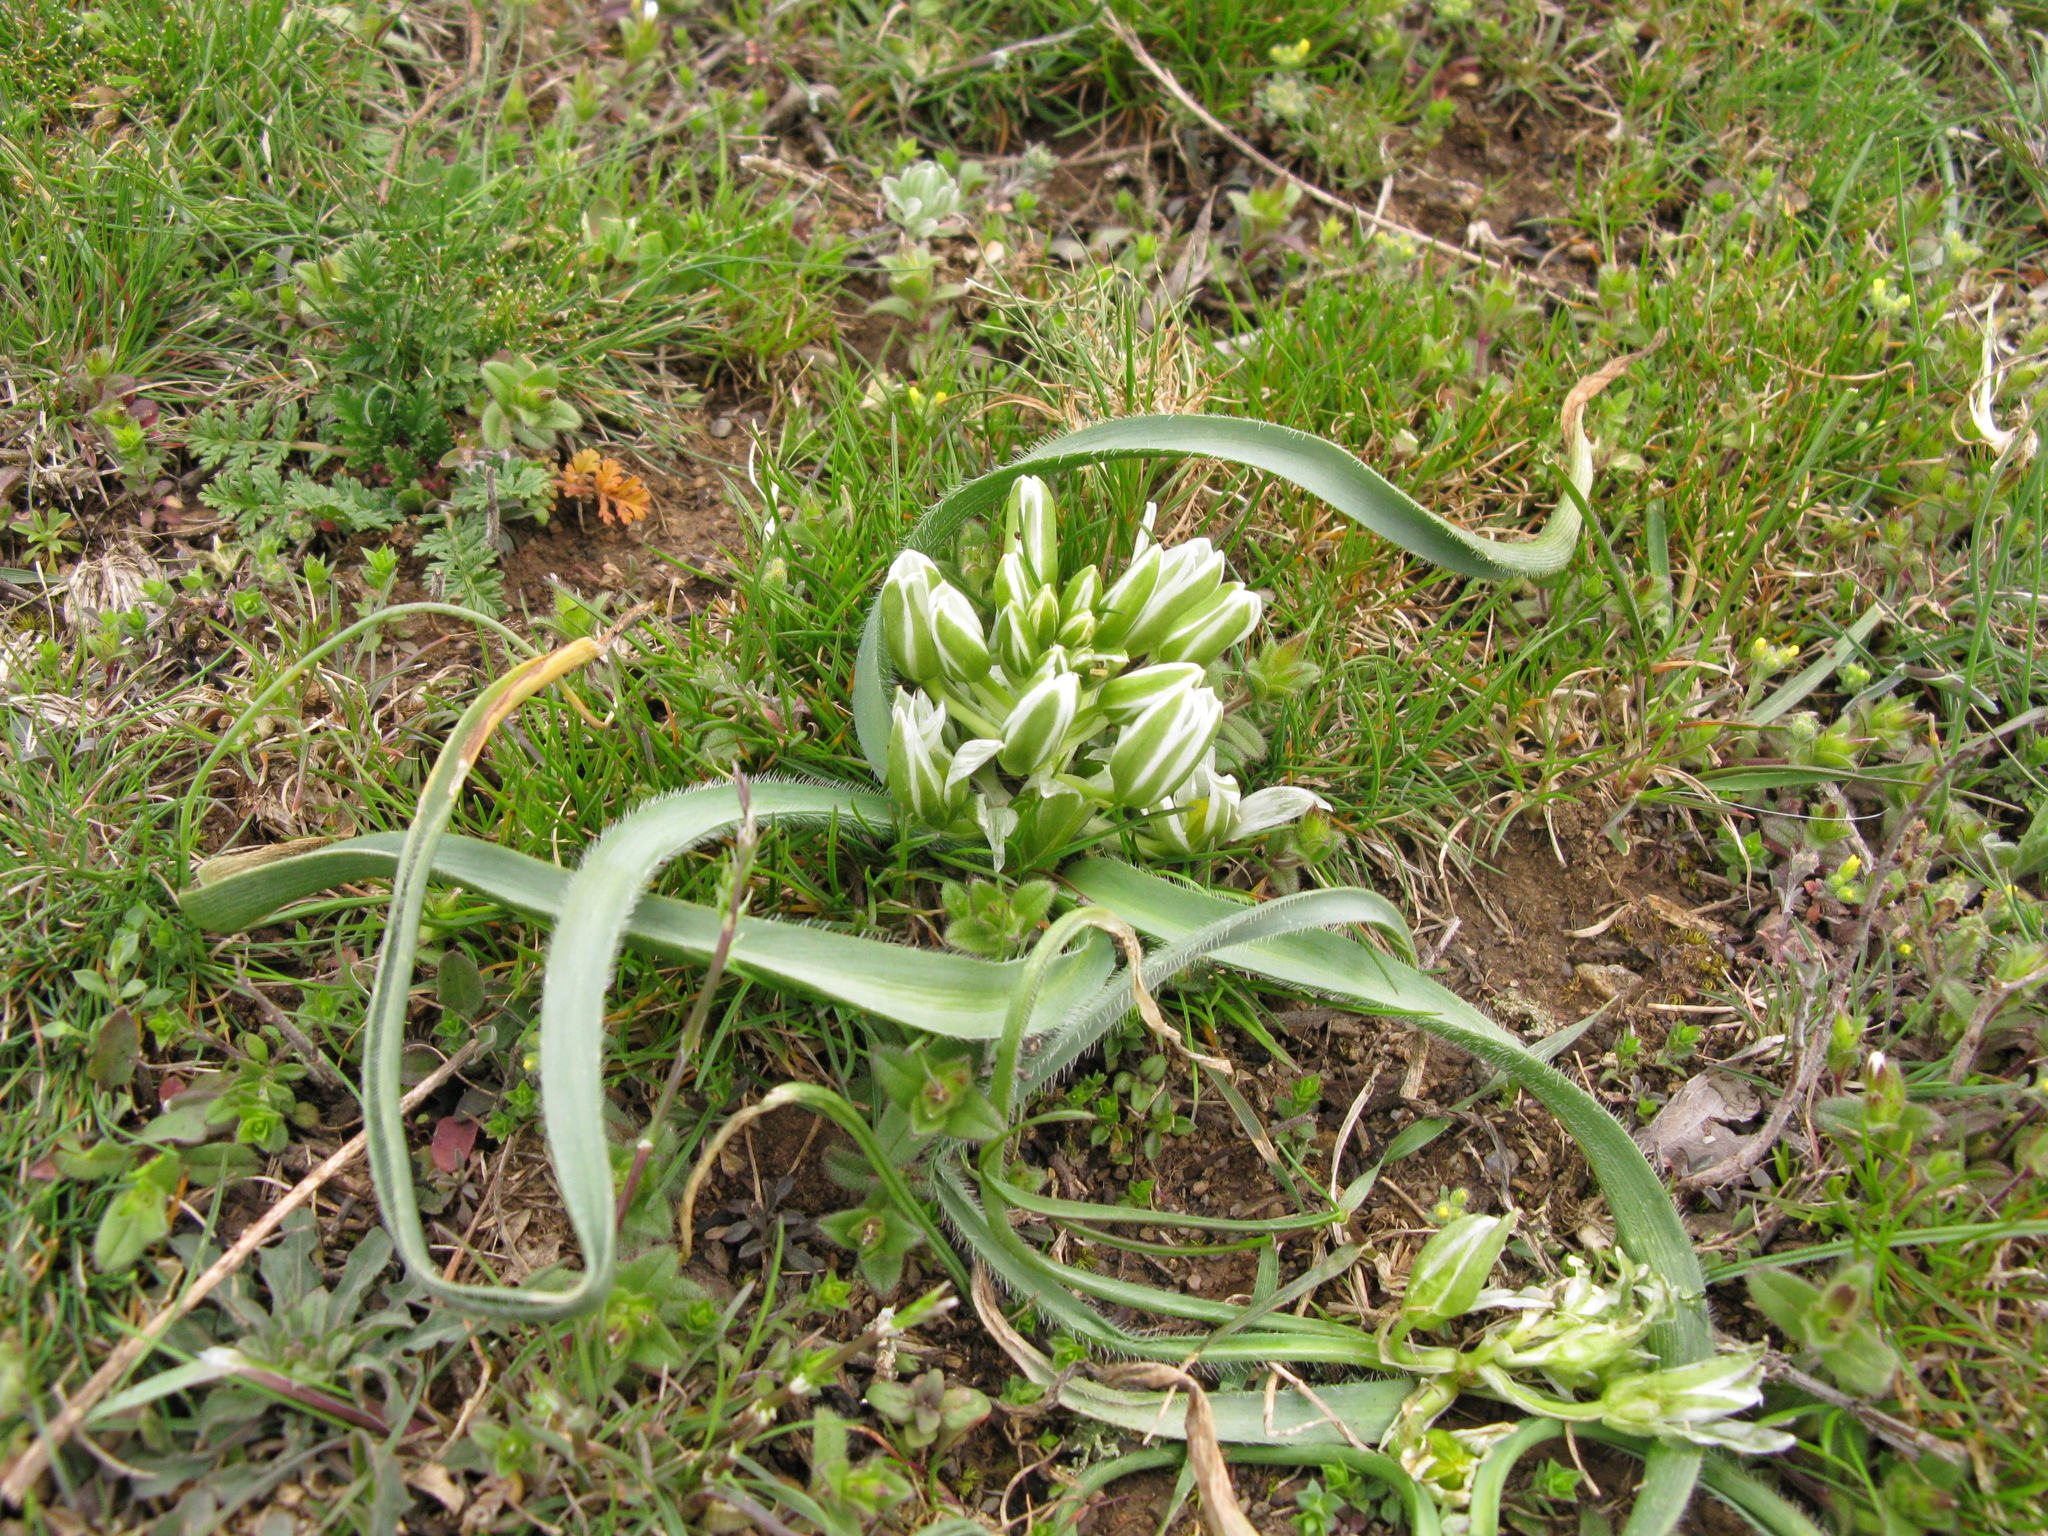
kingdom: Plantae
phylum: Tracheophyta
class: Liliopsida
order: Asparagales
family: Asparagaceae
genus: Ornithogalum
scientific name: Ornithogalum fimbriatum
